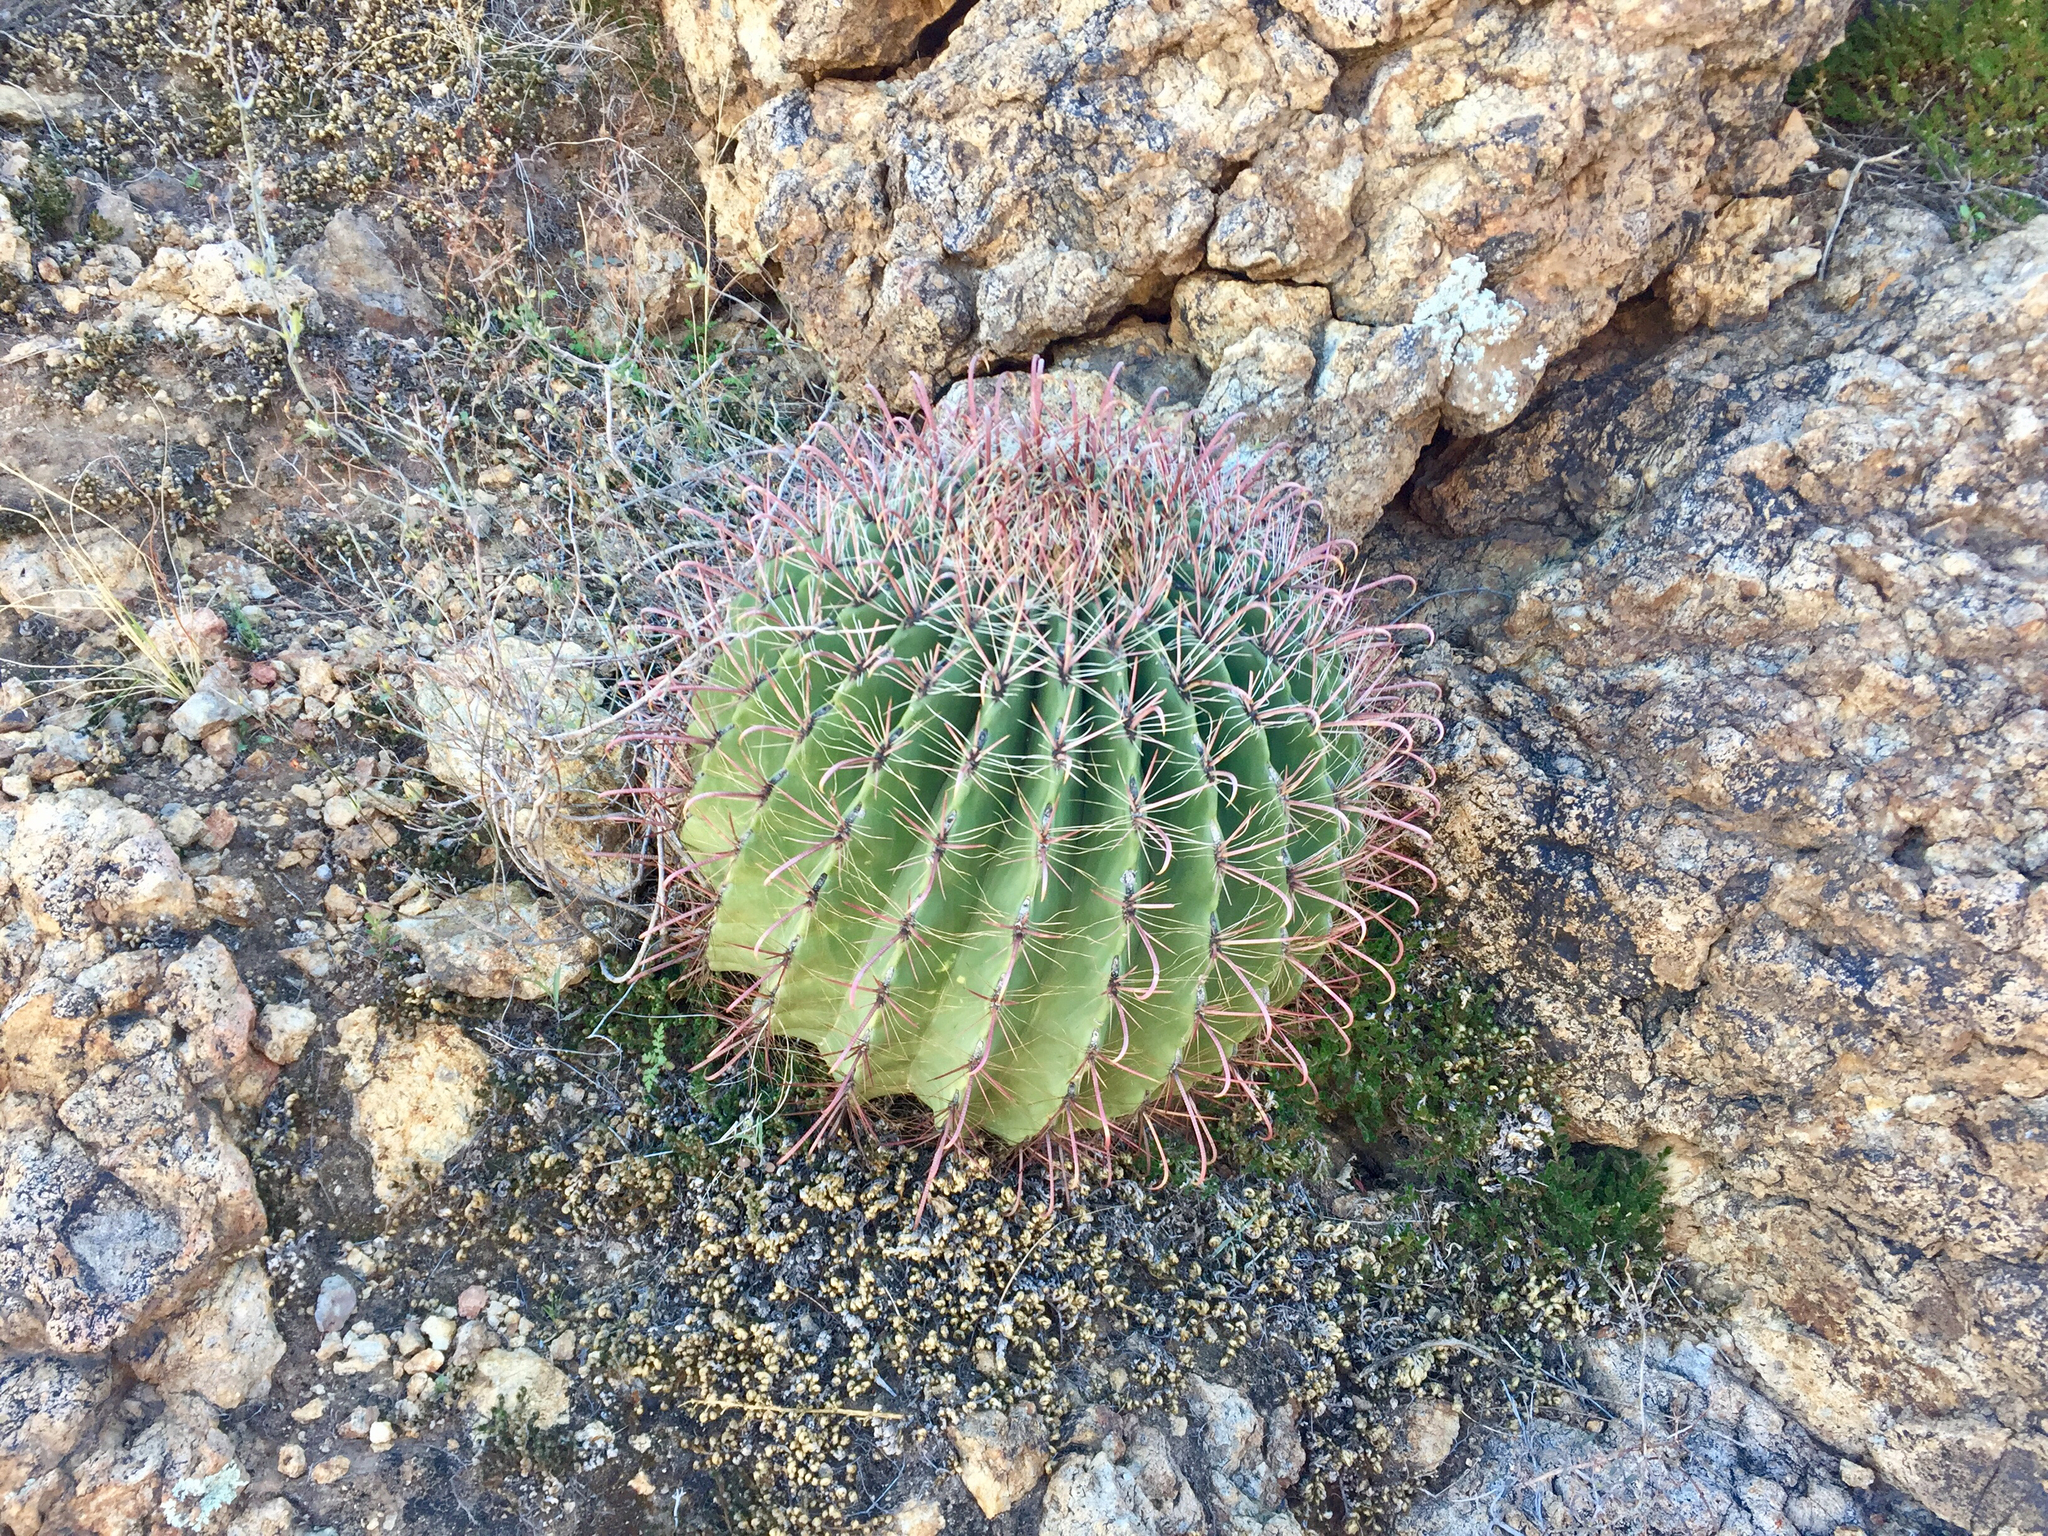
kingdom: Plantae
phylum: Tracheophyta
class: Magnoliopsida
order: Caryophyllales
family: Cactaceae
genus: Ferocactus
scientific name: Ferocactus wislizeni
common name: Candy barrel cactus
